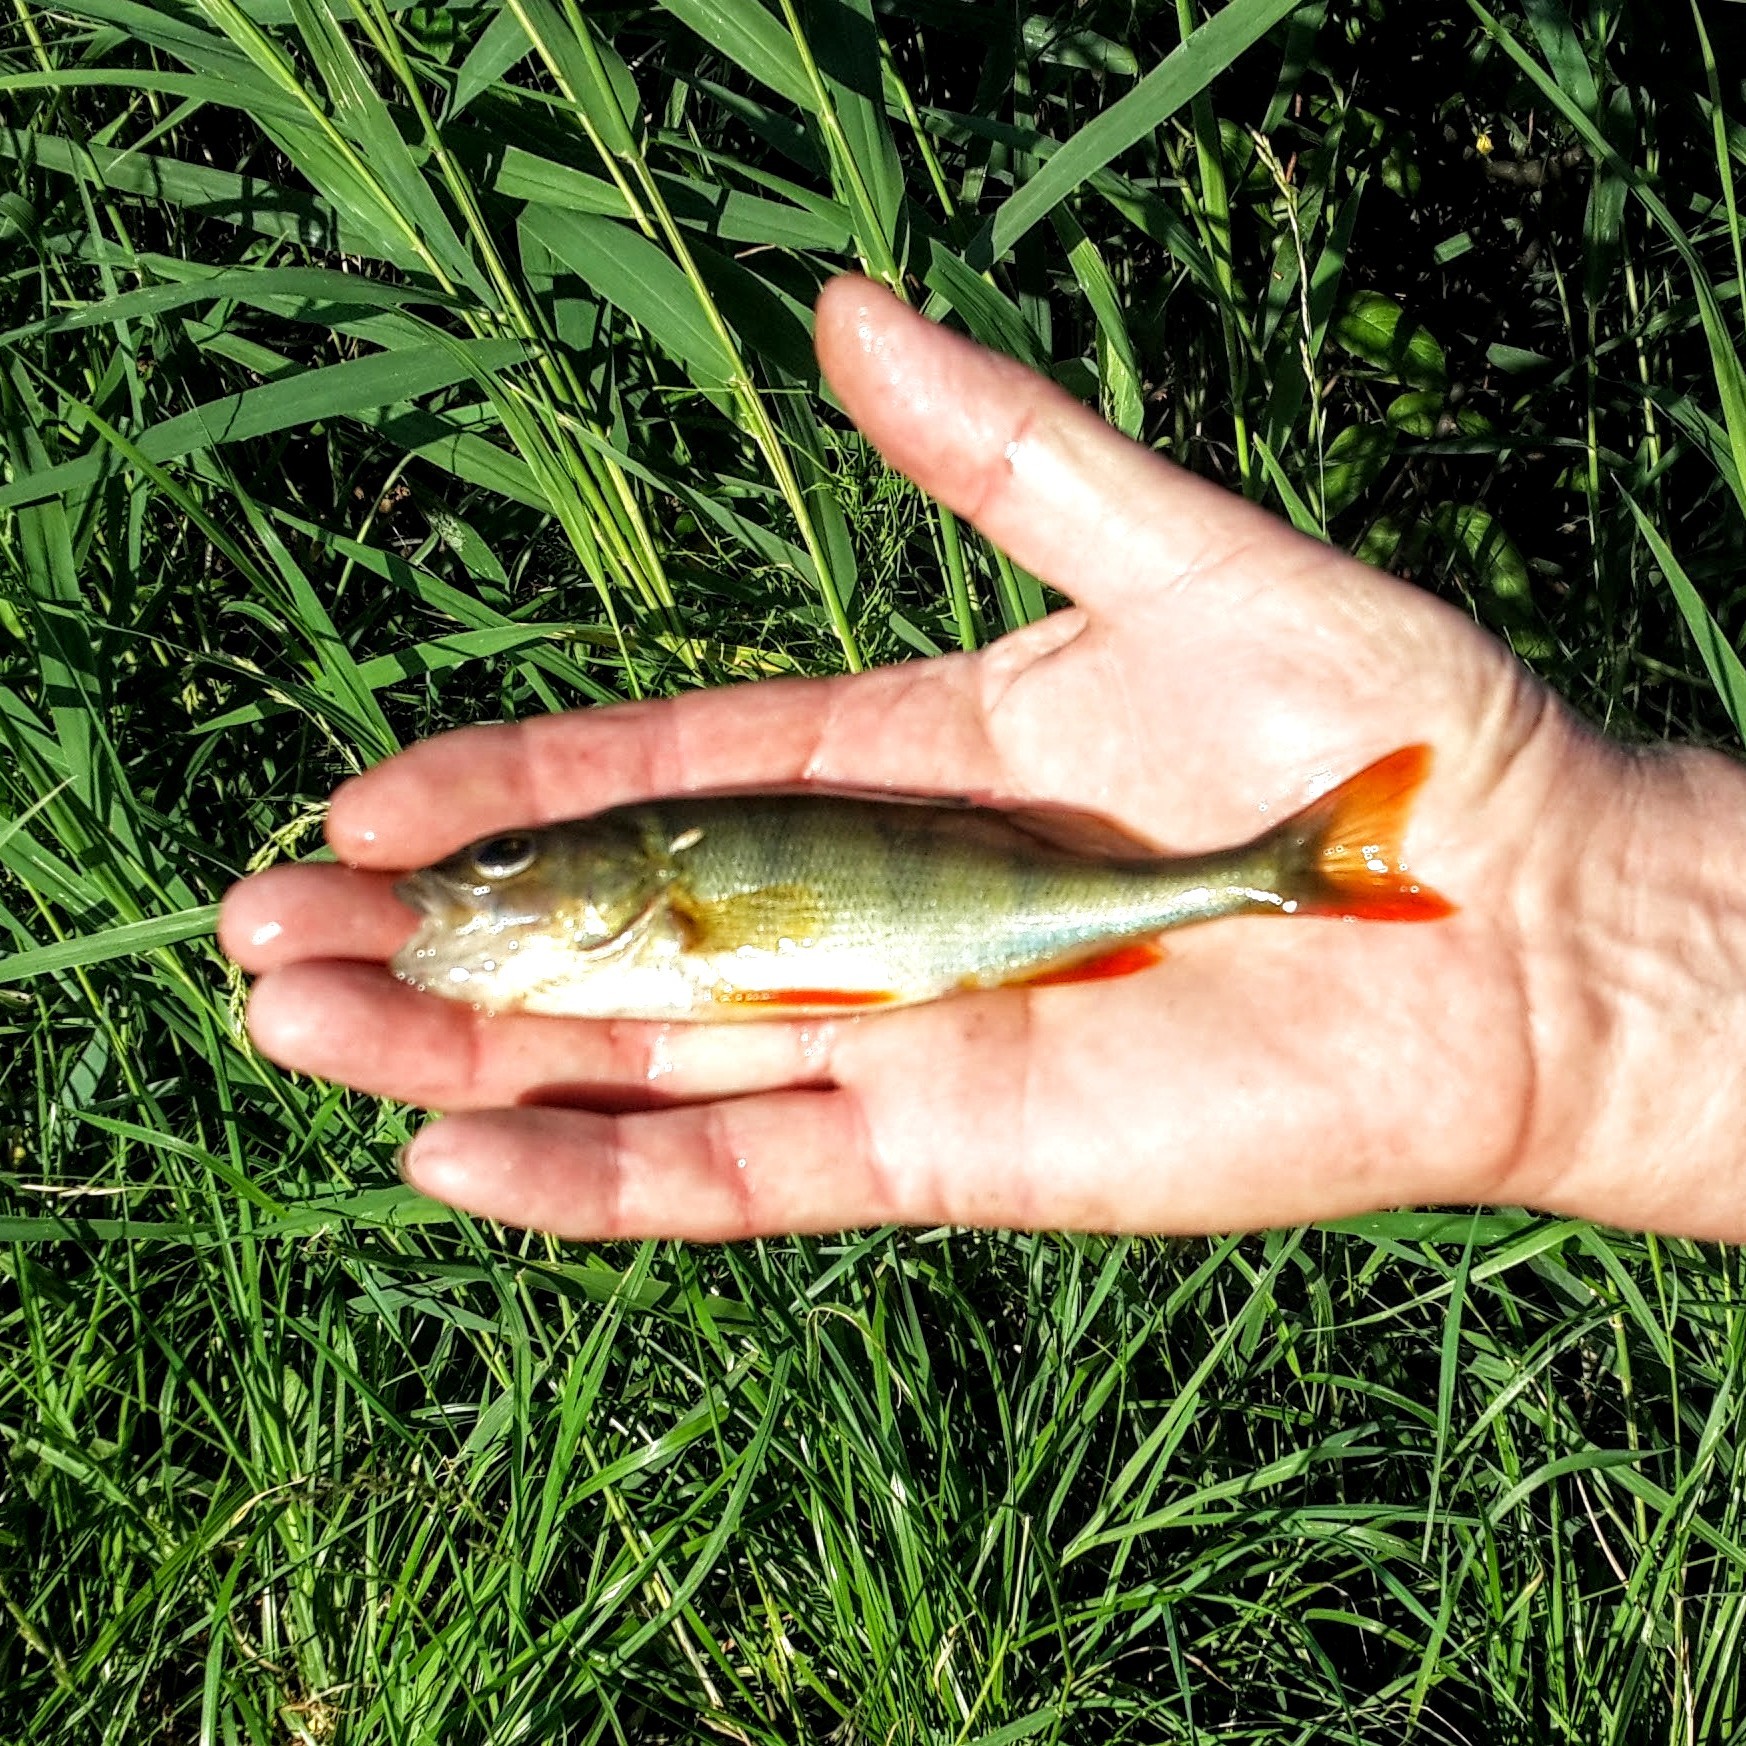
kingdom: Animalia
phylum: Chordata
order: Perciformes
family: Percidae
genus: Perca
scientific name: Perca fluviatilis
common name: Perch
